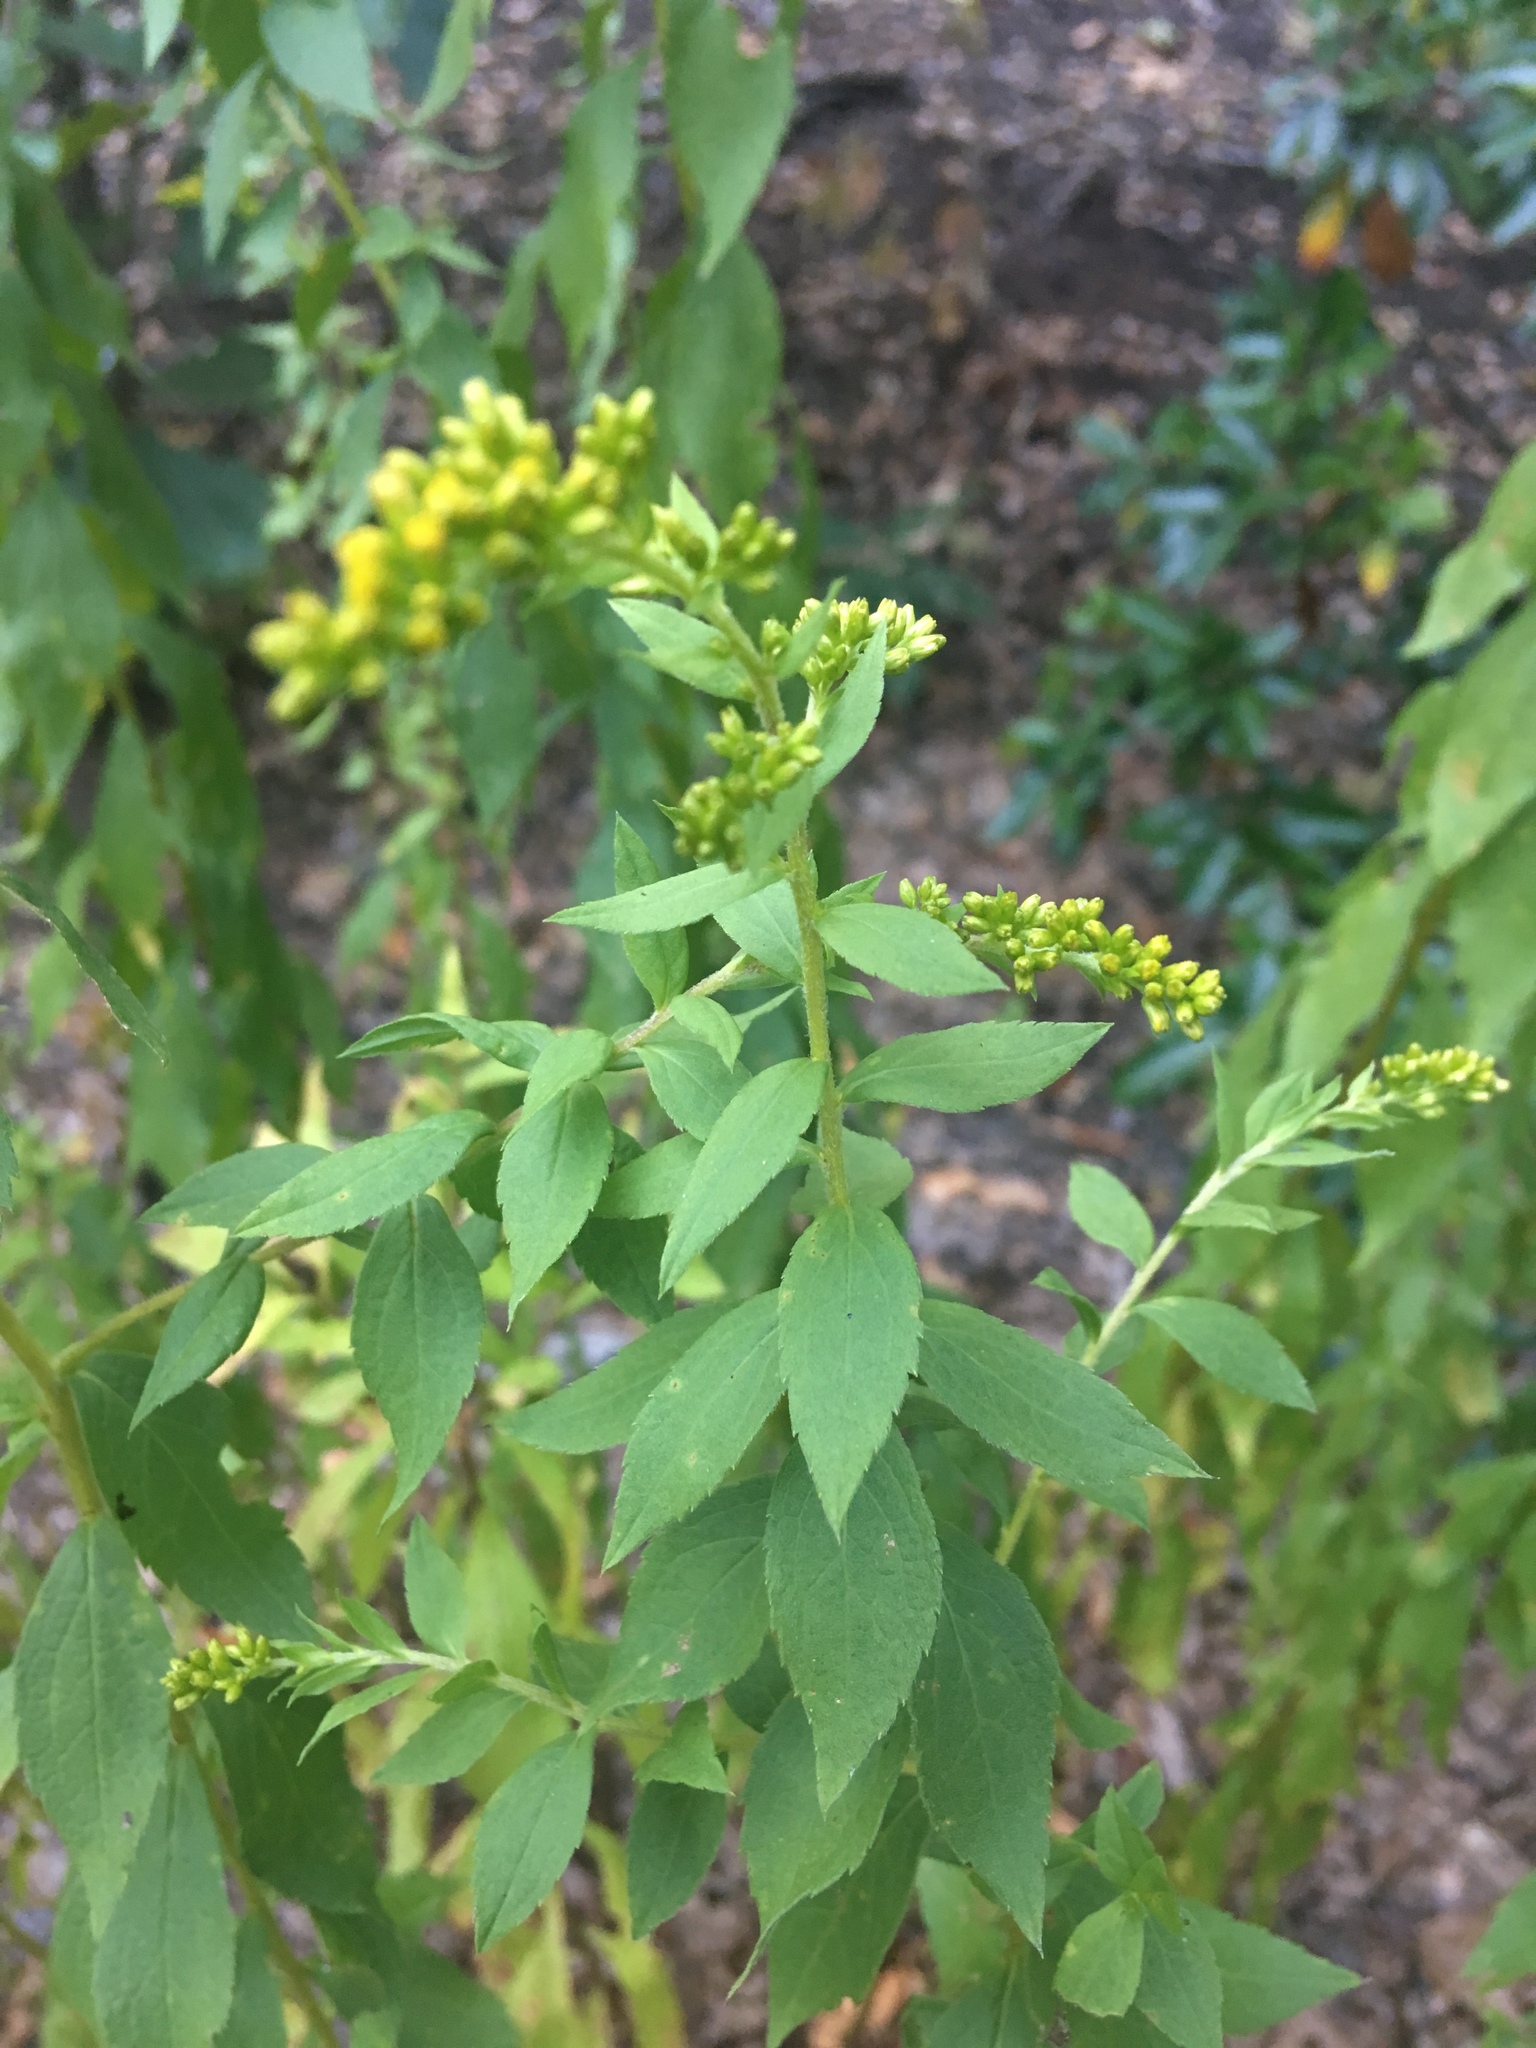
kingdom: Plantae
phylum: Tracheophyta
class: Magnoliopsida
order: Asterales
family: Asteraceae
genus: Solidago
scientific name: Solidago rugosa
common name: Rough-stemmed goldenrod
